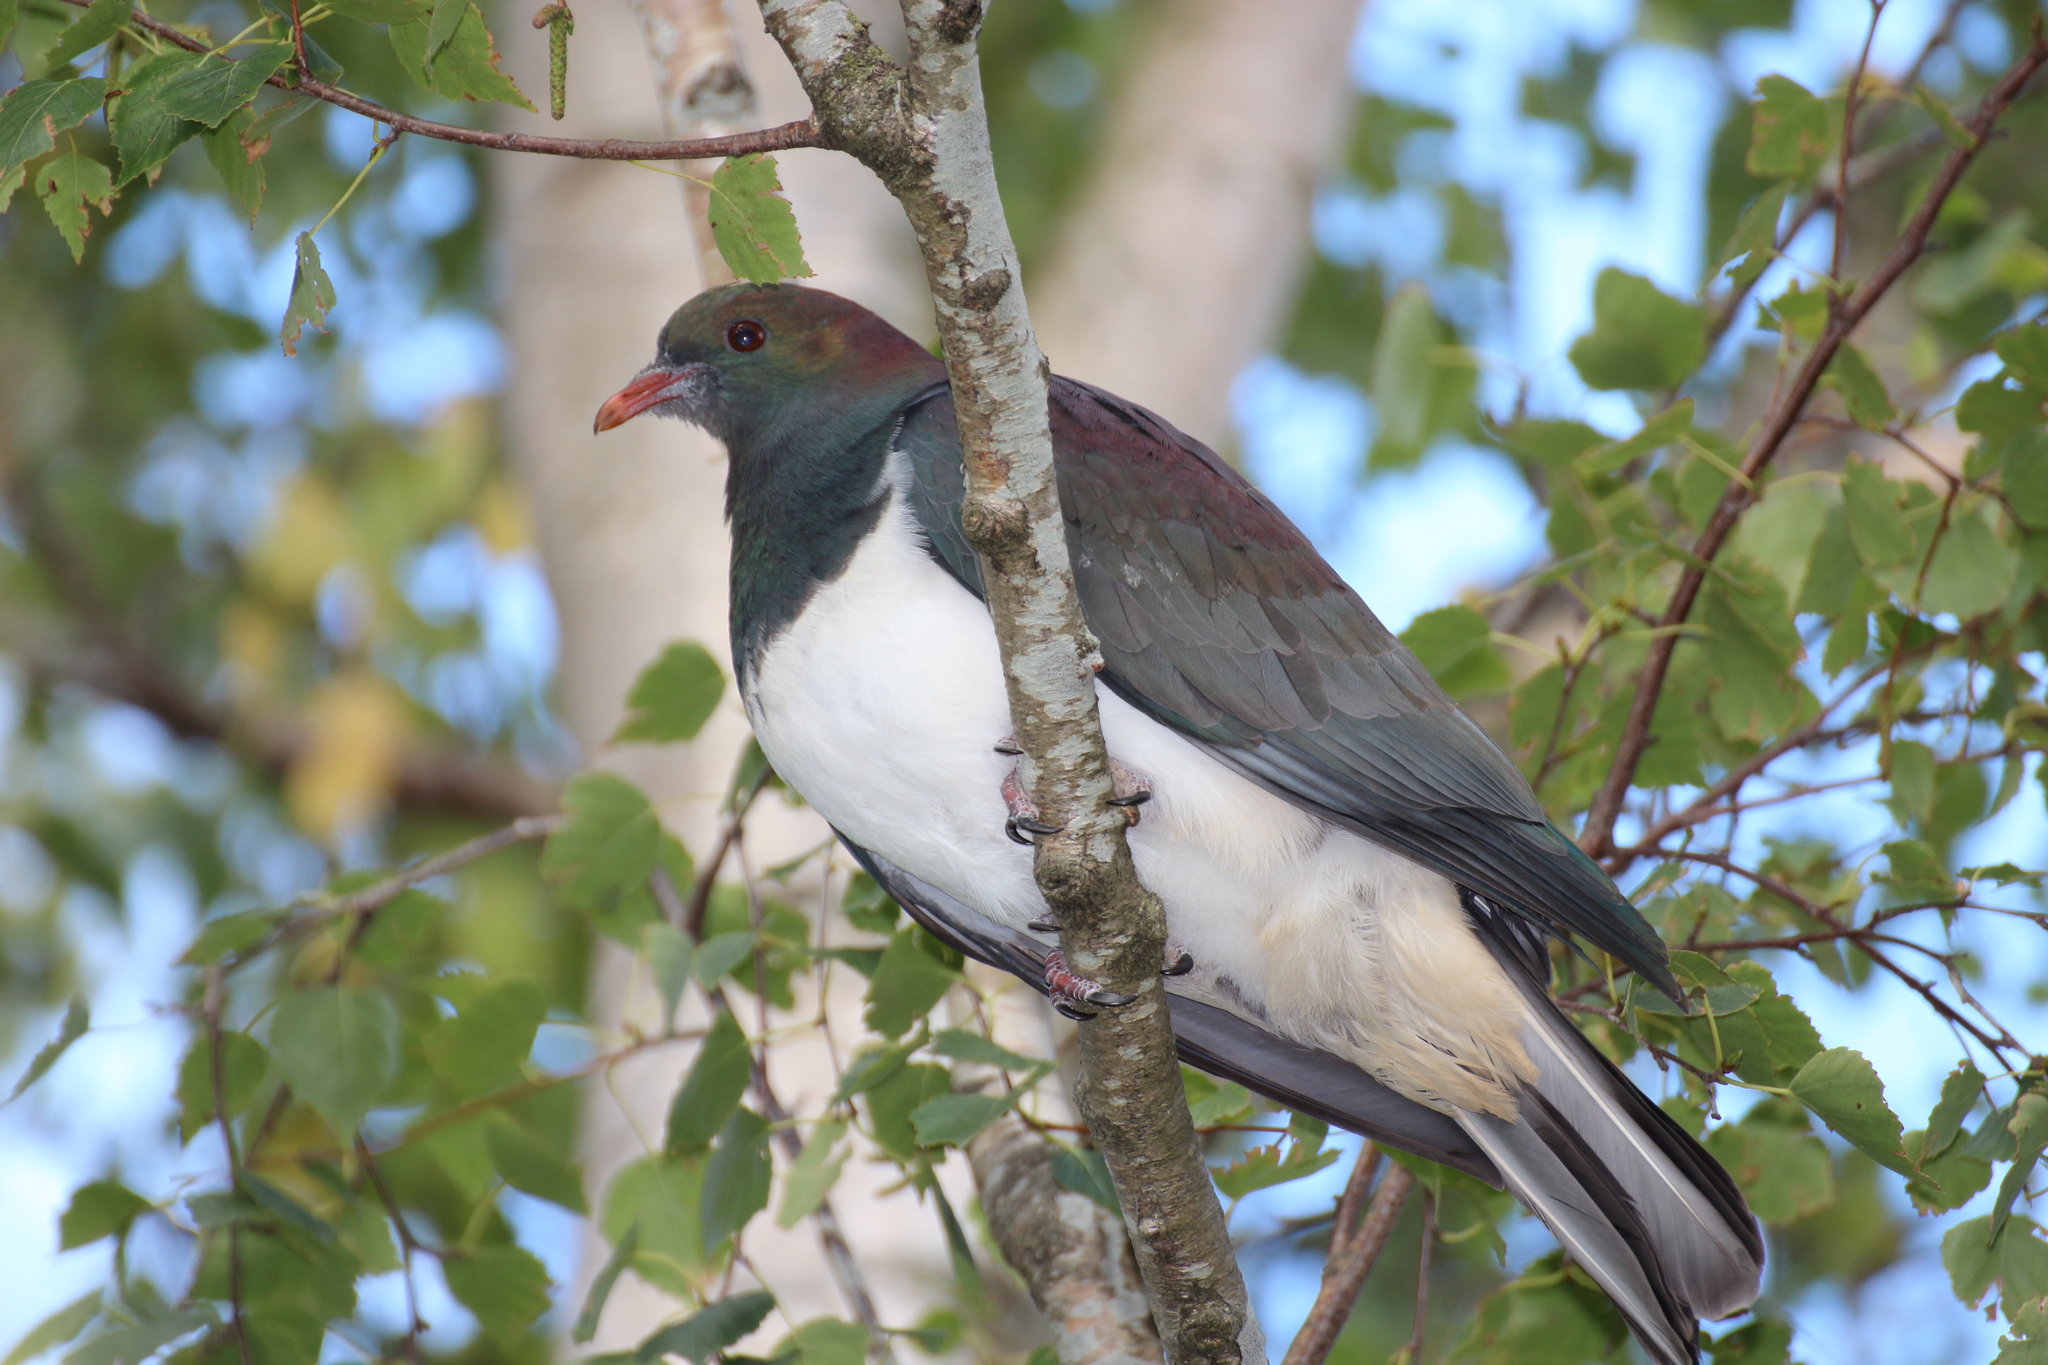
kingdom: Animalia
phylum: Chordata
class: Aves
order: Columbiformes
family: Columbidae
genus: Hemiphaga
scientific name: Hemiphaga novaeseelandiae
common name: New zealand pigeon
